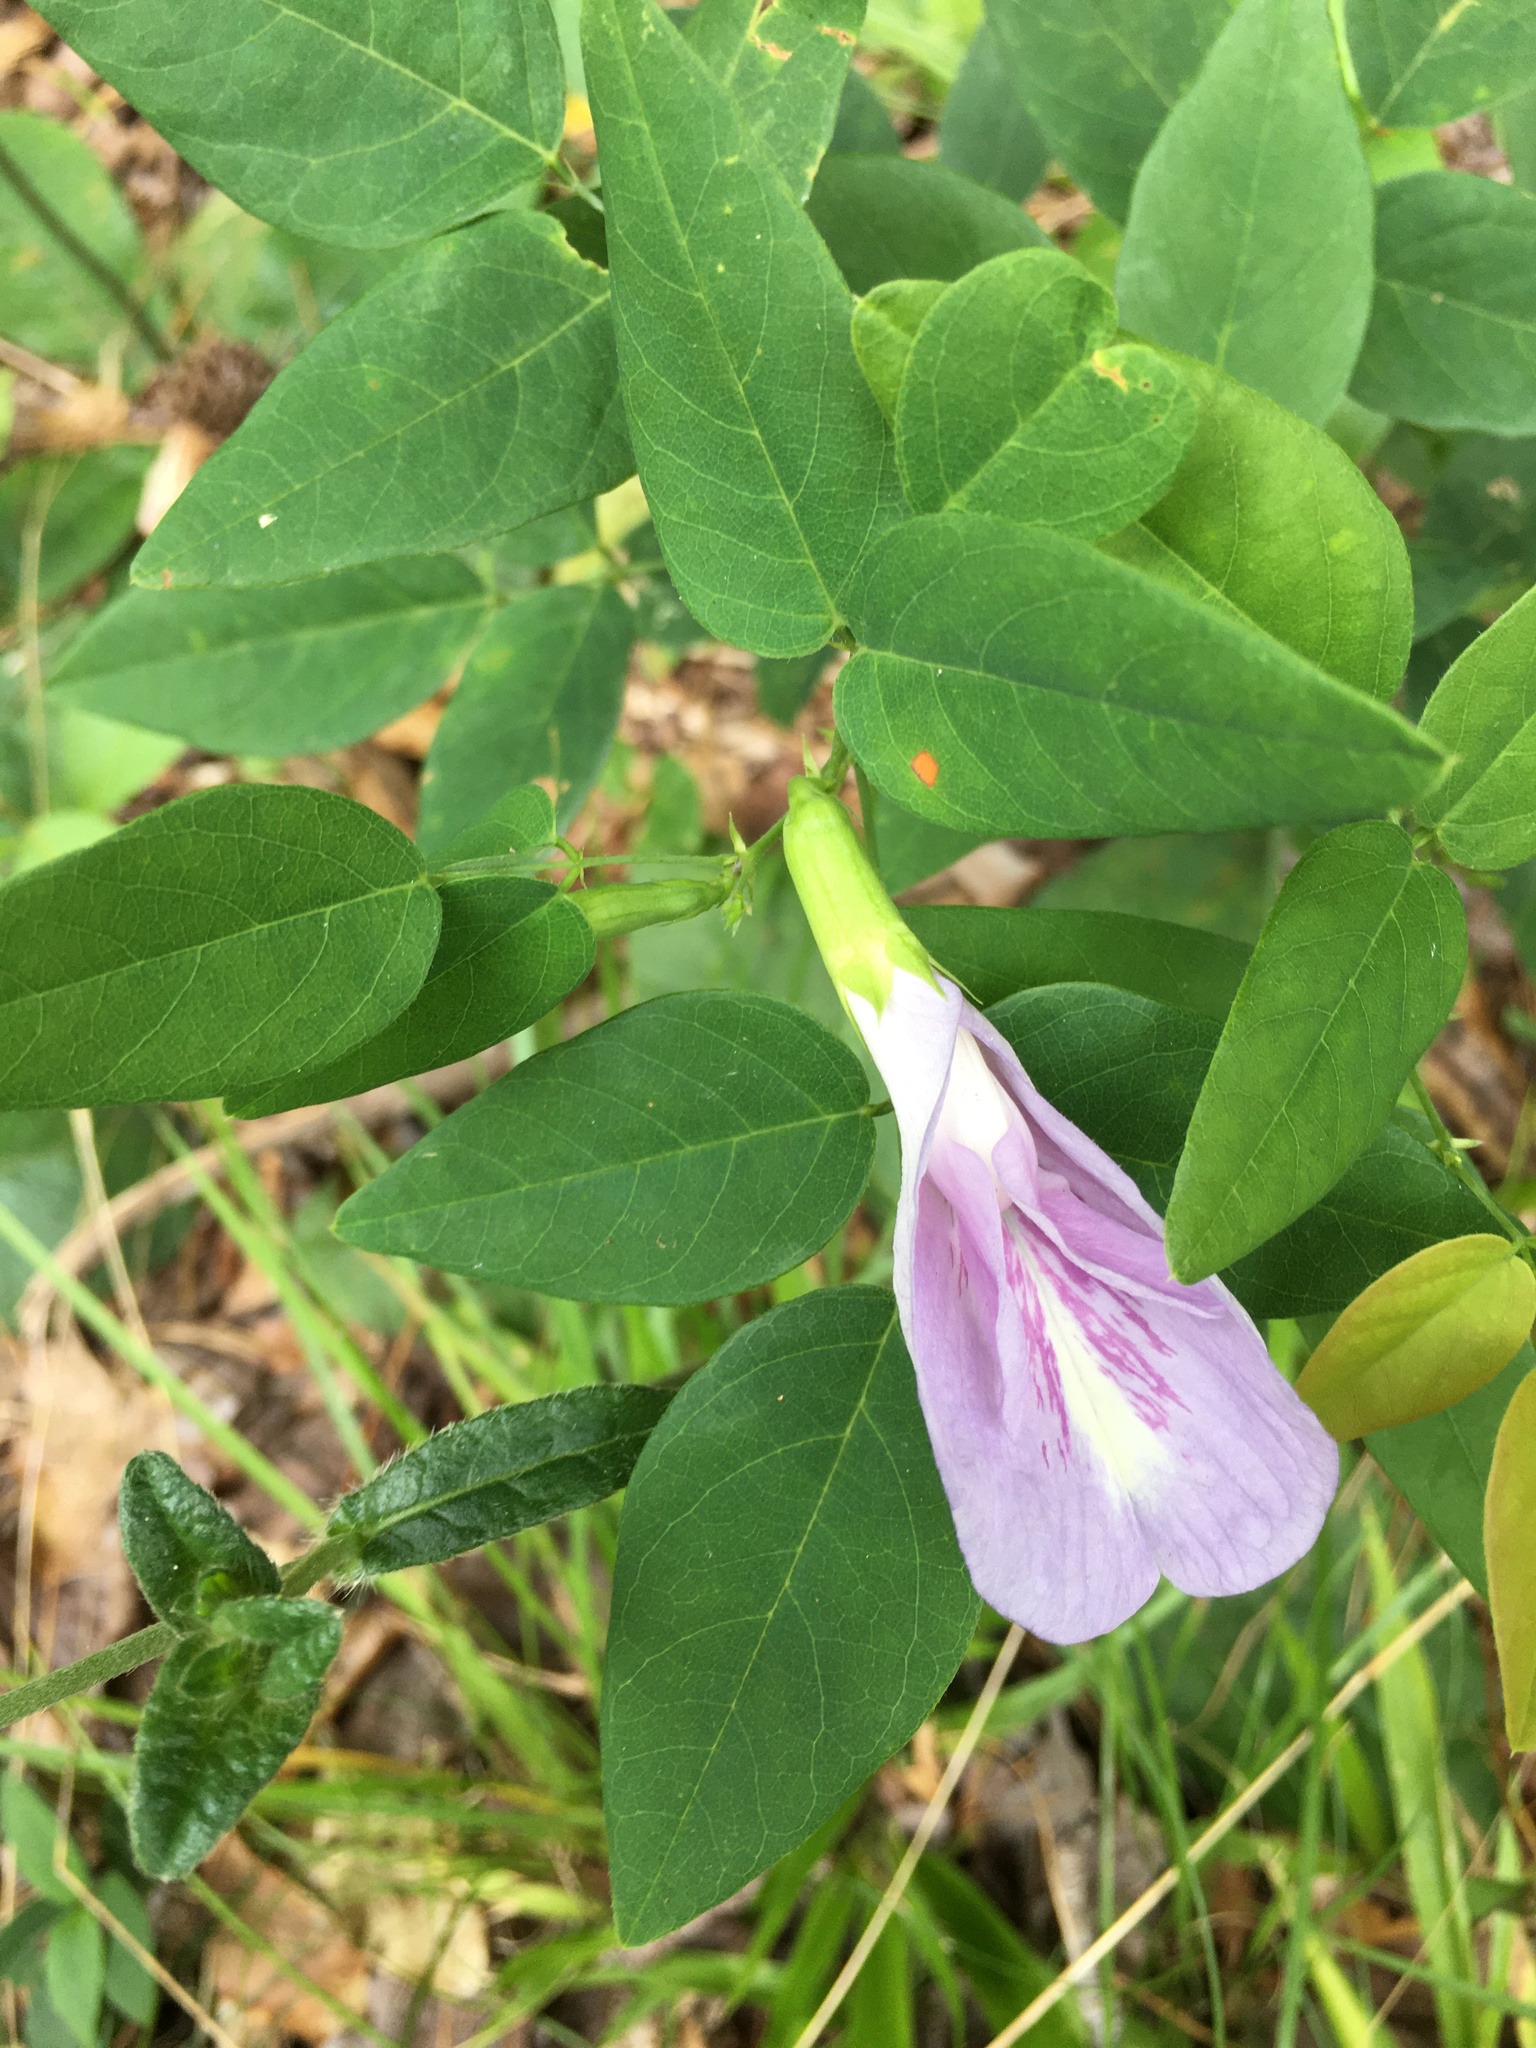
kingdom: Plantae
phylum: Tracheophyta
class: Magnoliopsida
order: Fabales
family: Fabaceae
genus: Clitoria
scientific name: Clitoria mariana
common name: Butterfly-pea
